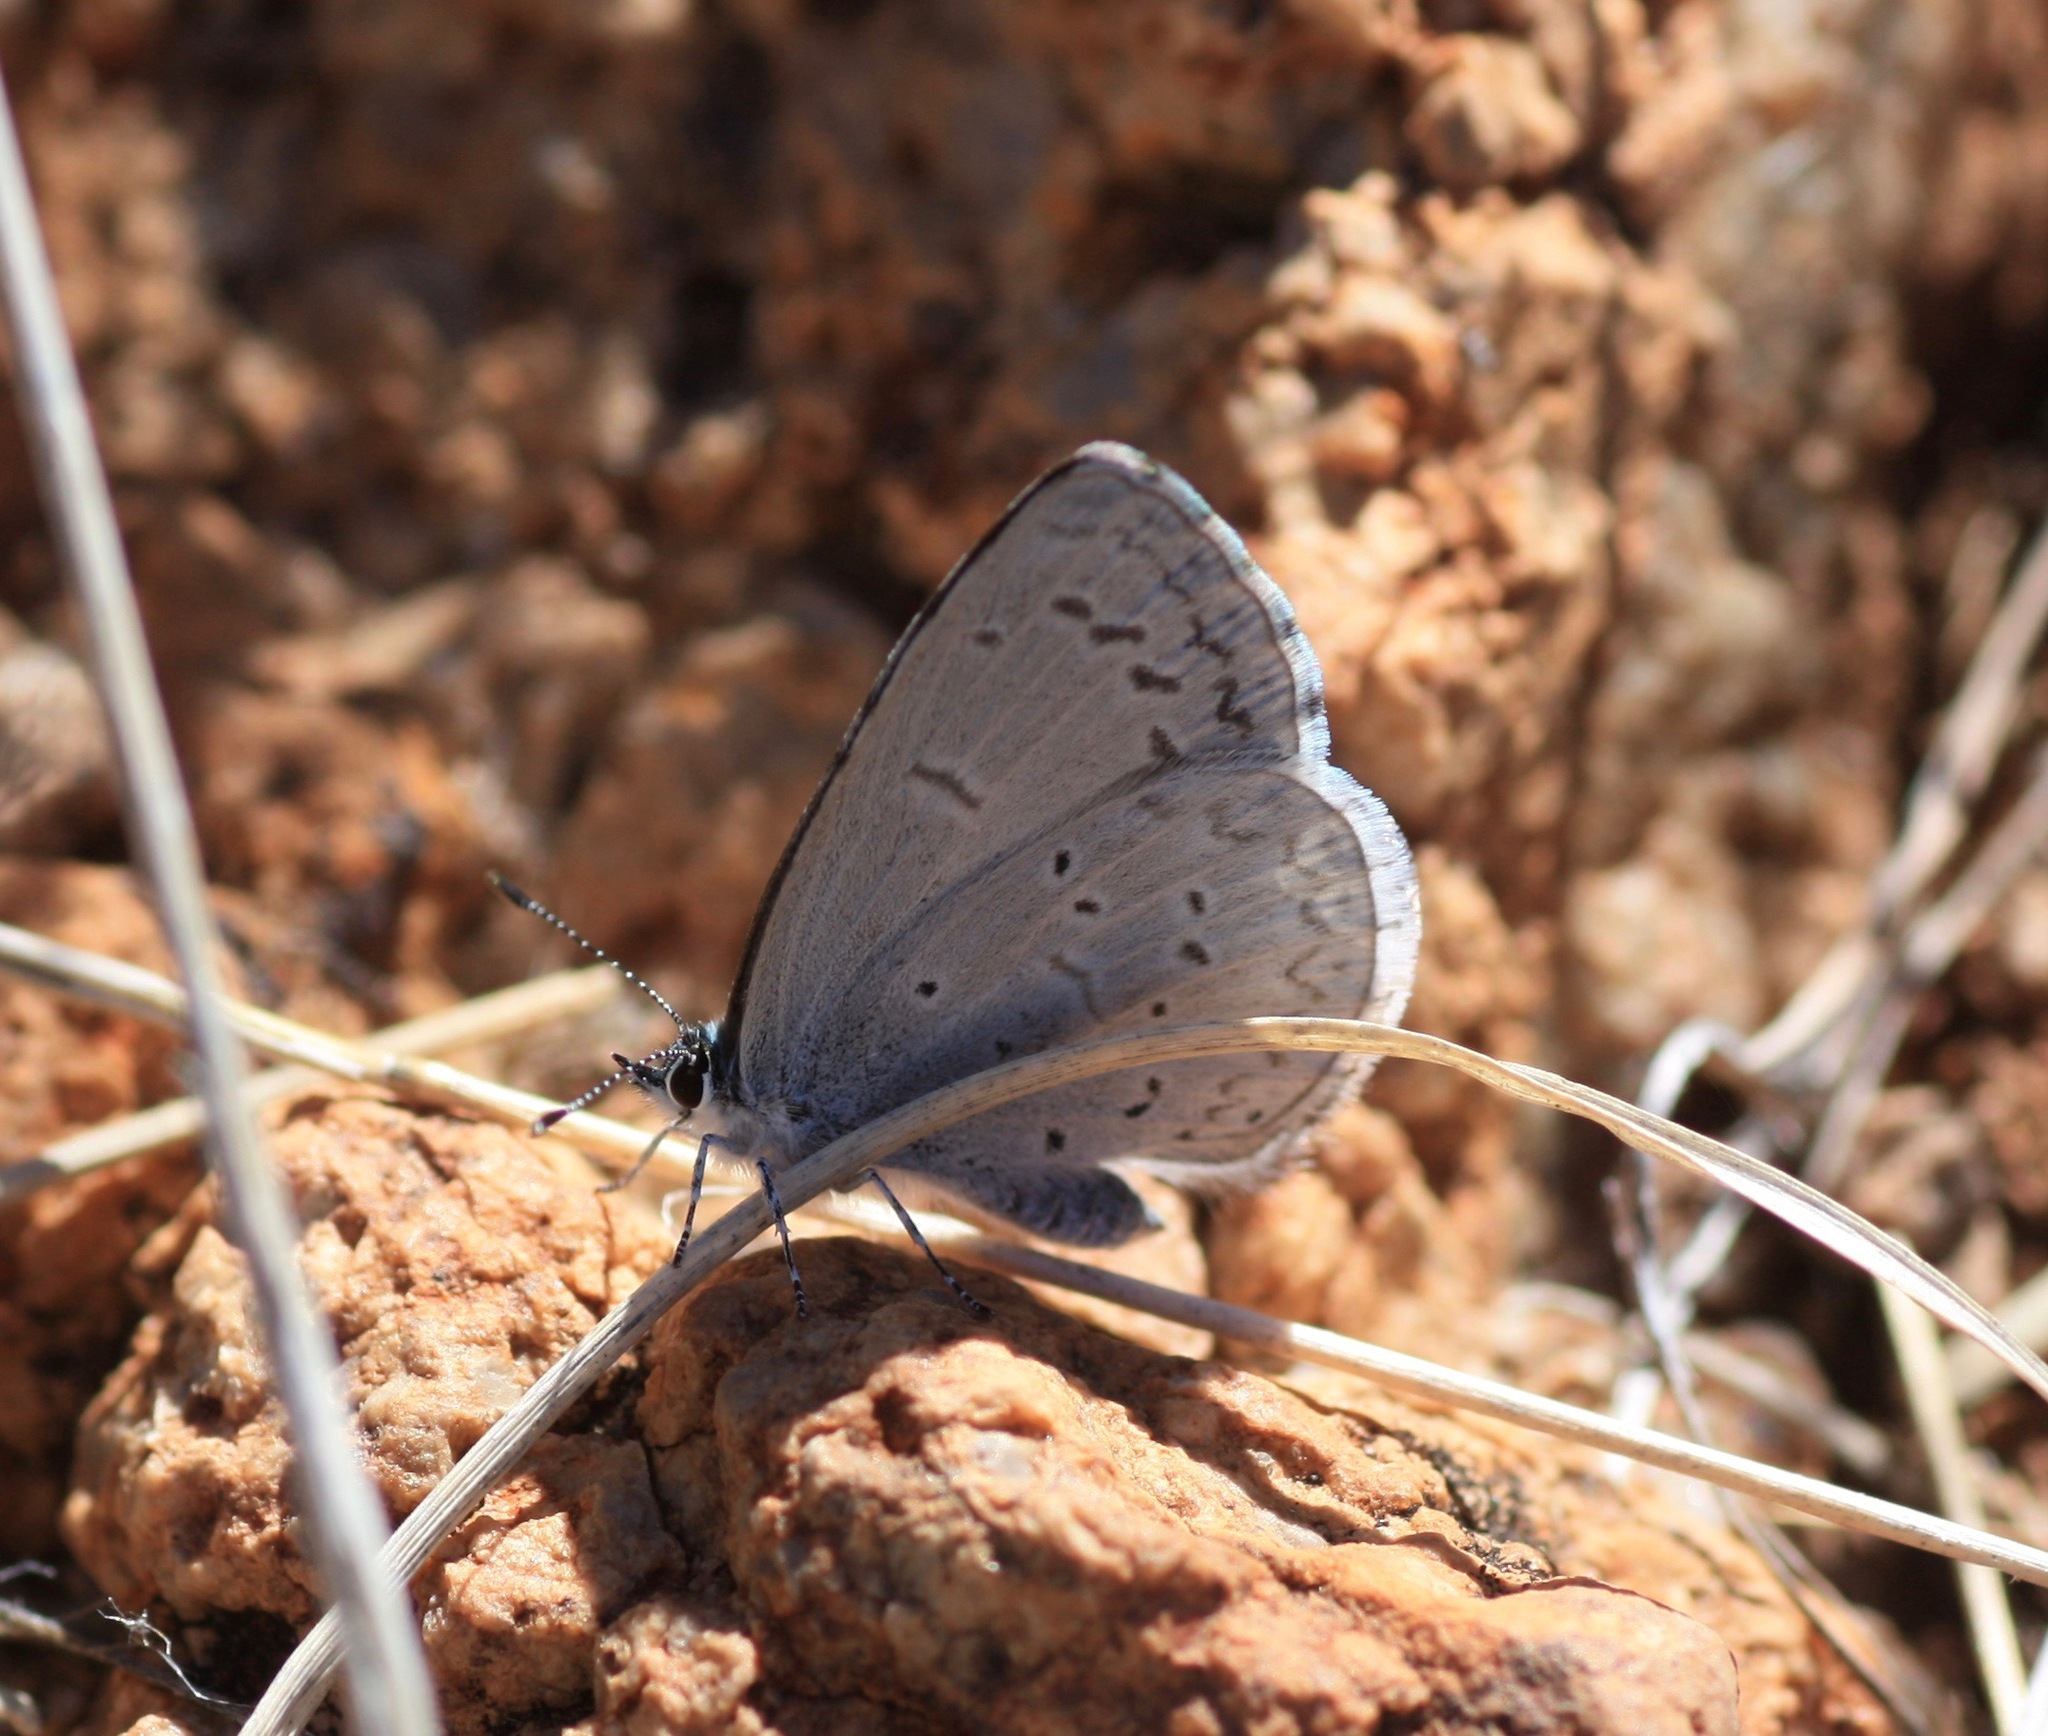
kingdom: Animalia
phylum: Arthropoda
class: Insecta
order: Lepidoptera
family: Lycaenidae
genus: Celastrina
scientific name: Celastrina ladon
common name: Spring azure
